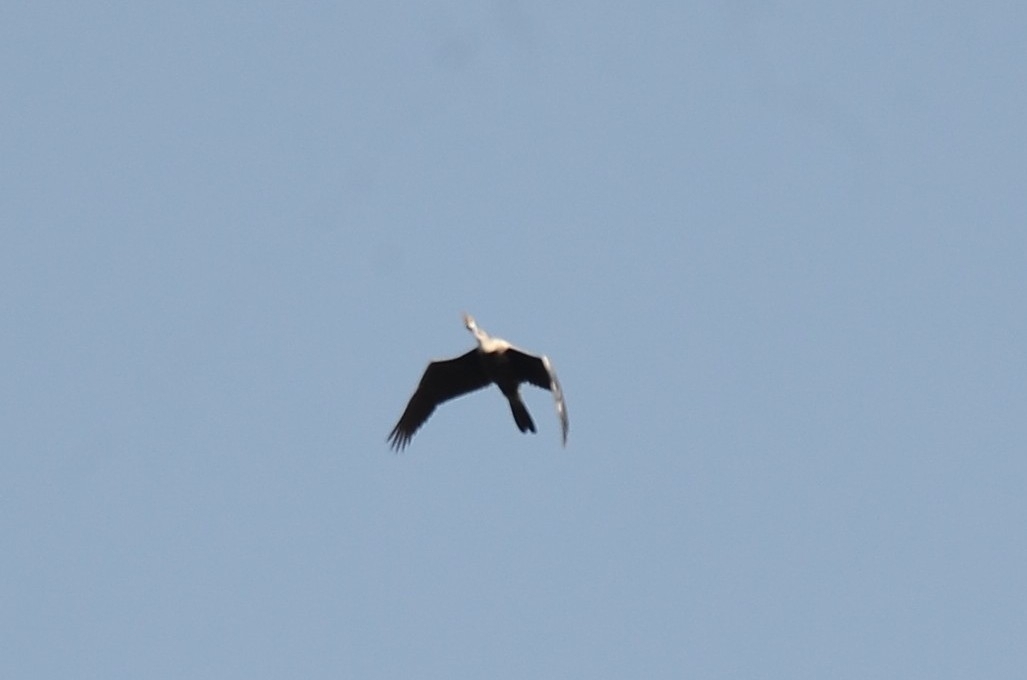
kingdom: Animalia
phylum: Chordata
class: Aves
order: Suliformes
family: Anhingidae
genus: Anhinga
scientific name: Anhinga melanogaster
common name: Oriental darter
